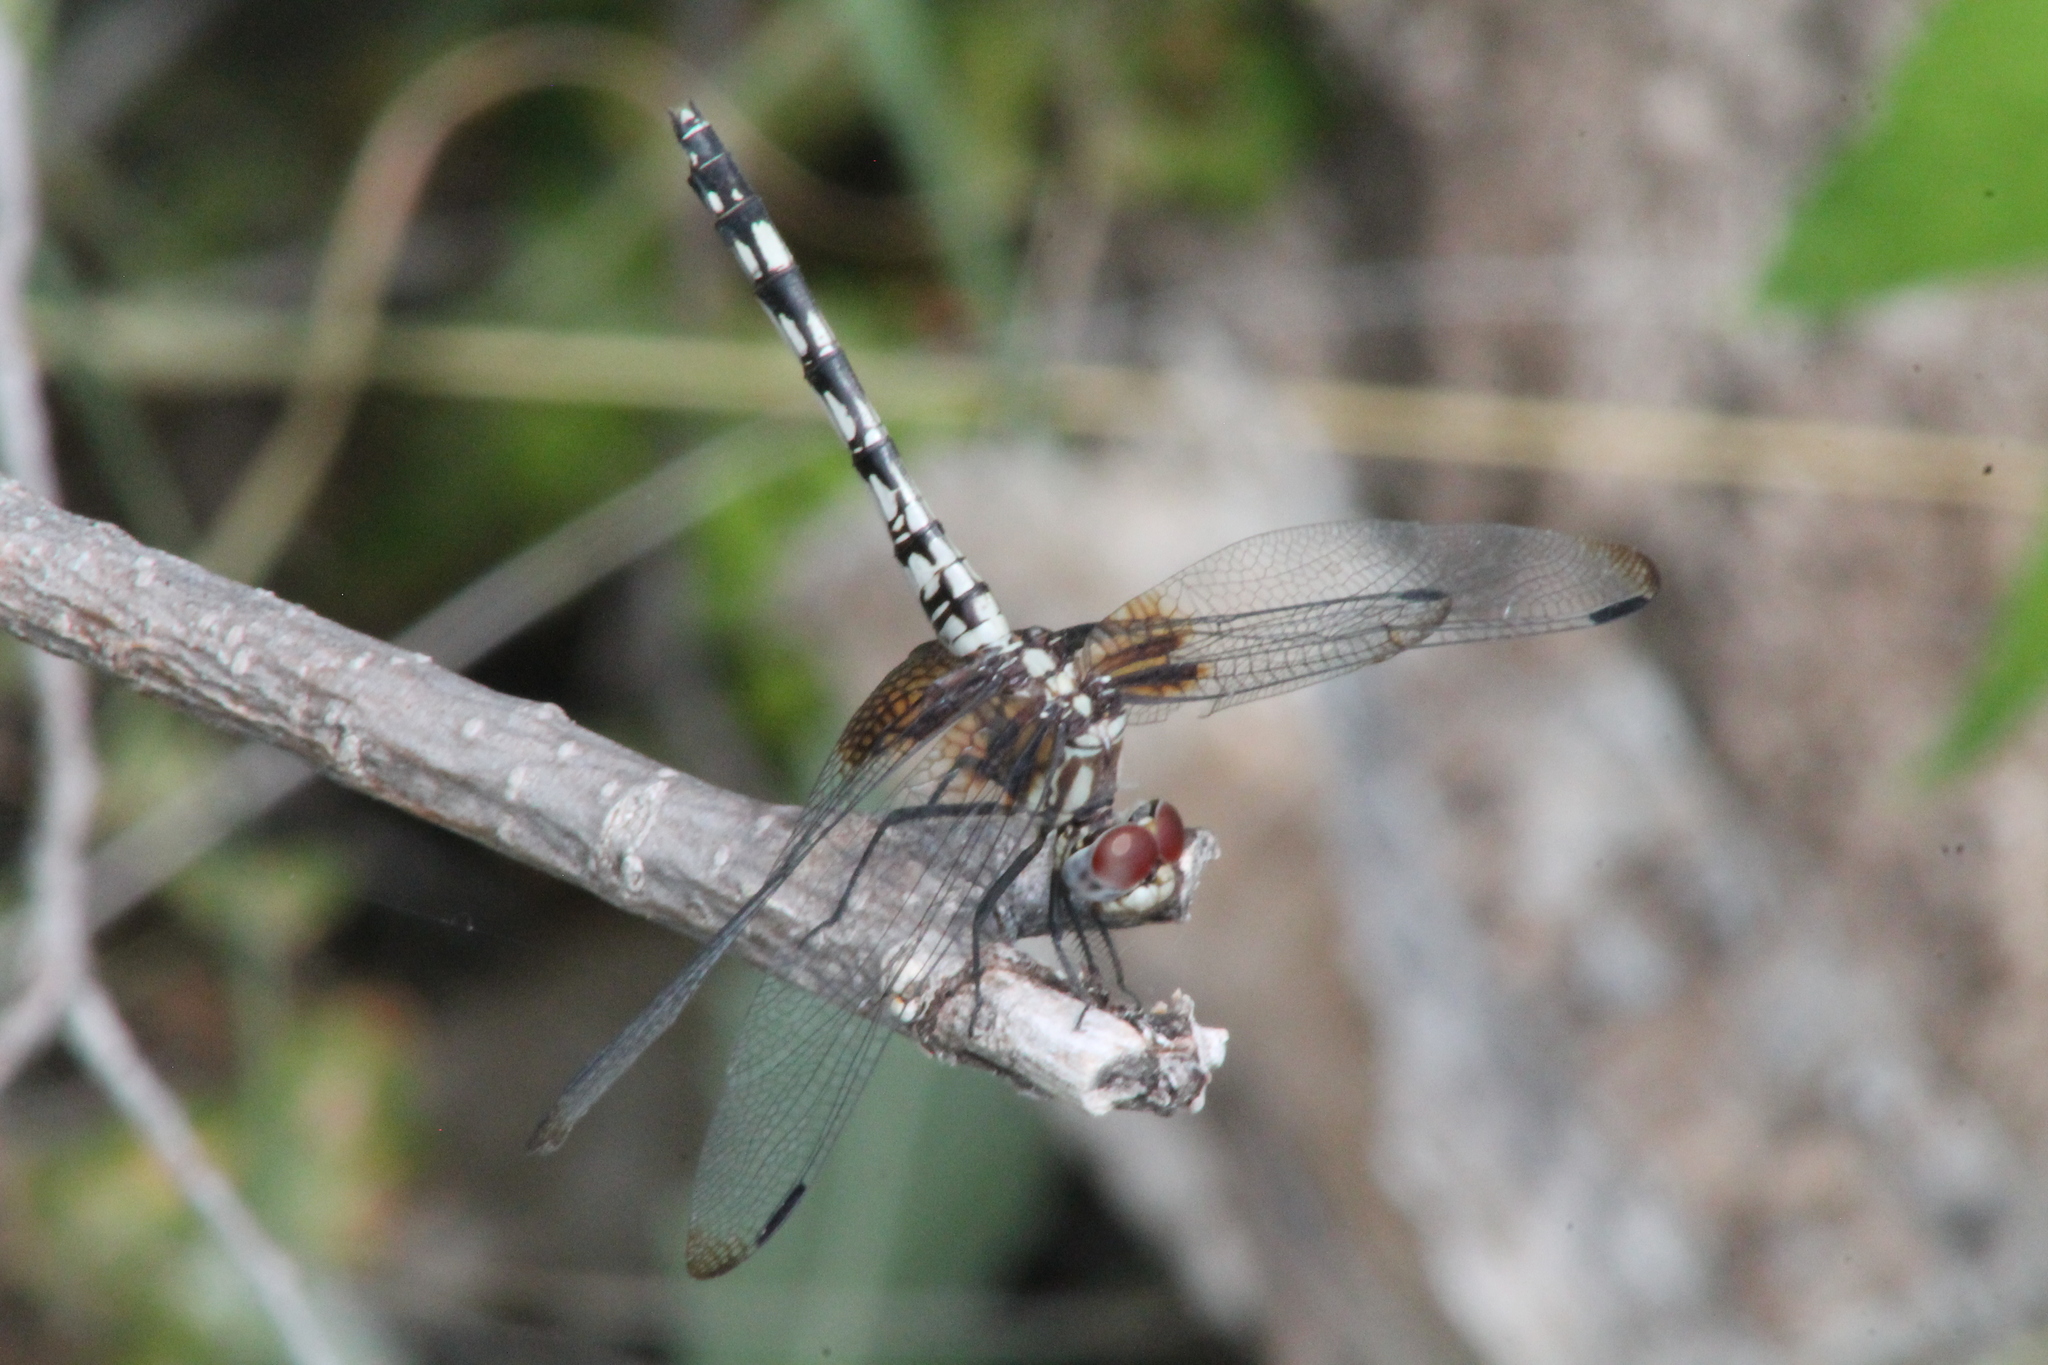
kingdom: Animalia
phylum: Arthropoda
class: Insecta
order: Odonata
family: Libellulidae
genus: Dythemis
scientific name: Dythemis fugax
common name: Checkered setwing
